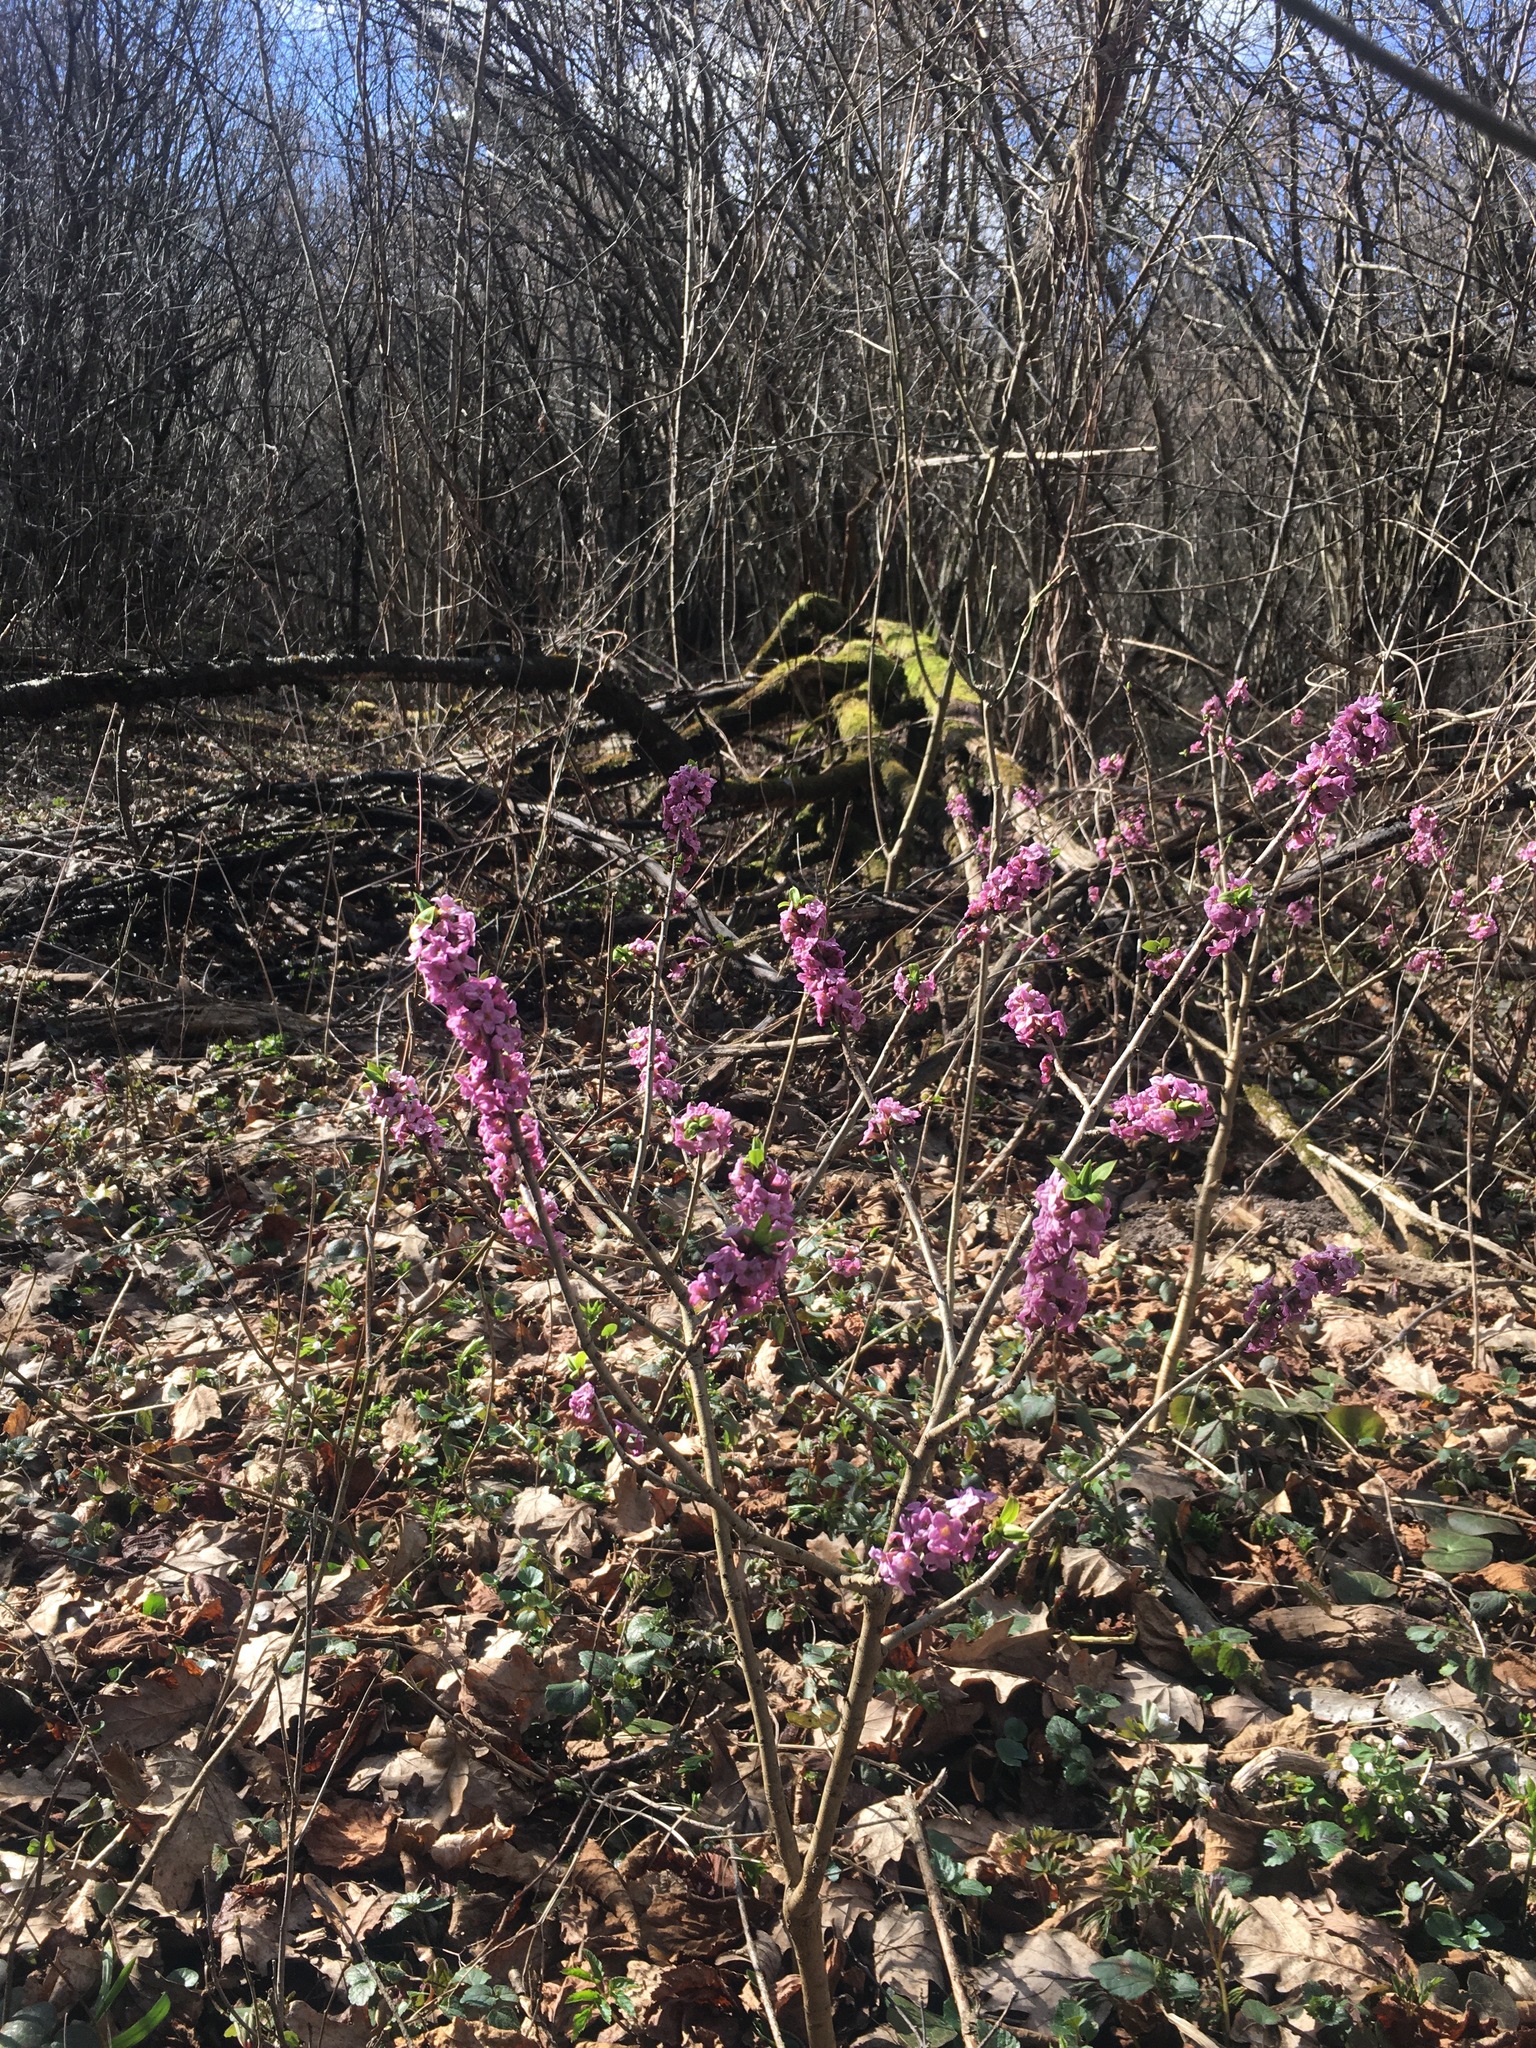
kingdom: Plantae
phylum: Tracheophyta
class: Magnoliopsida
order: Malvales
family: Thymelaeaceae
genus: Daphne
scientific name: Daphne mezereum
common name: Mezereon
